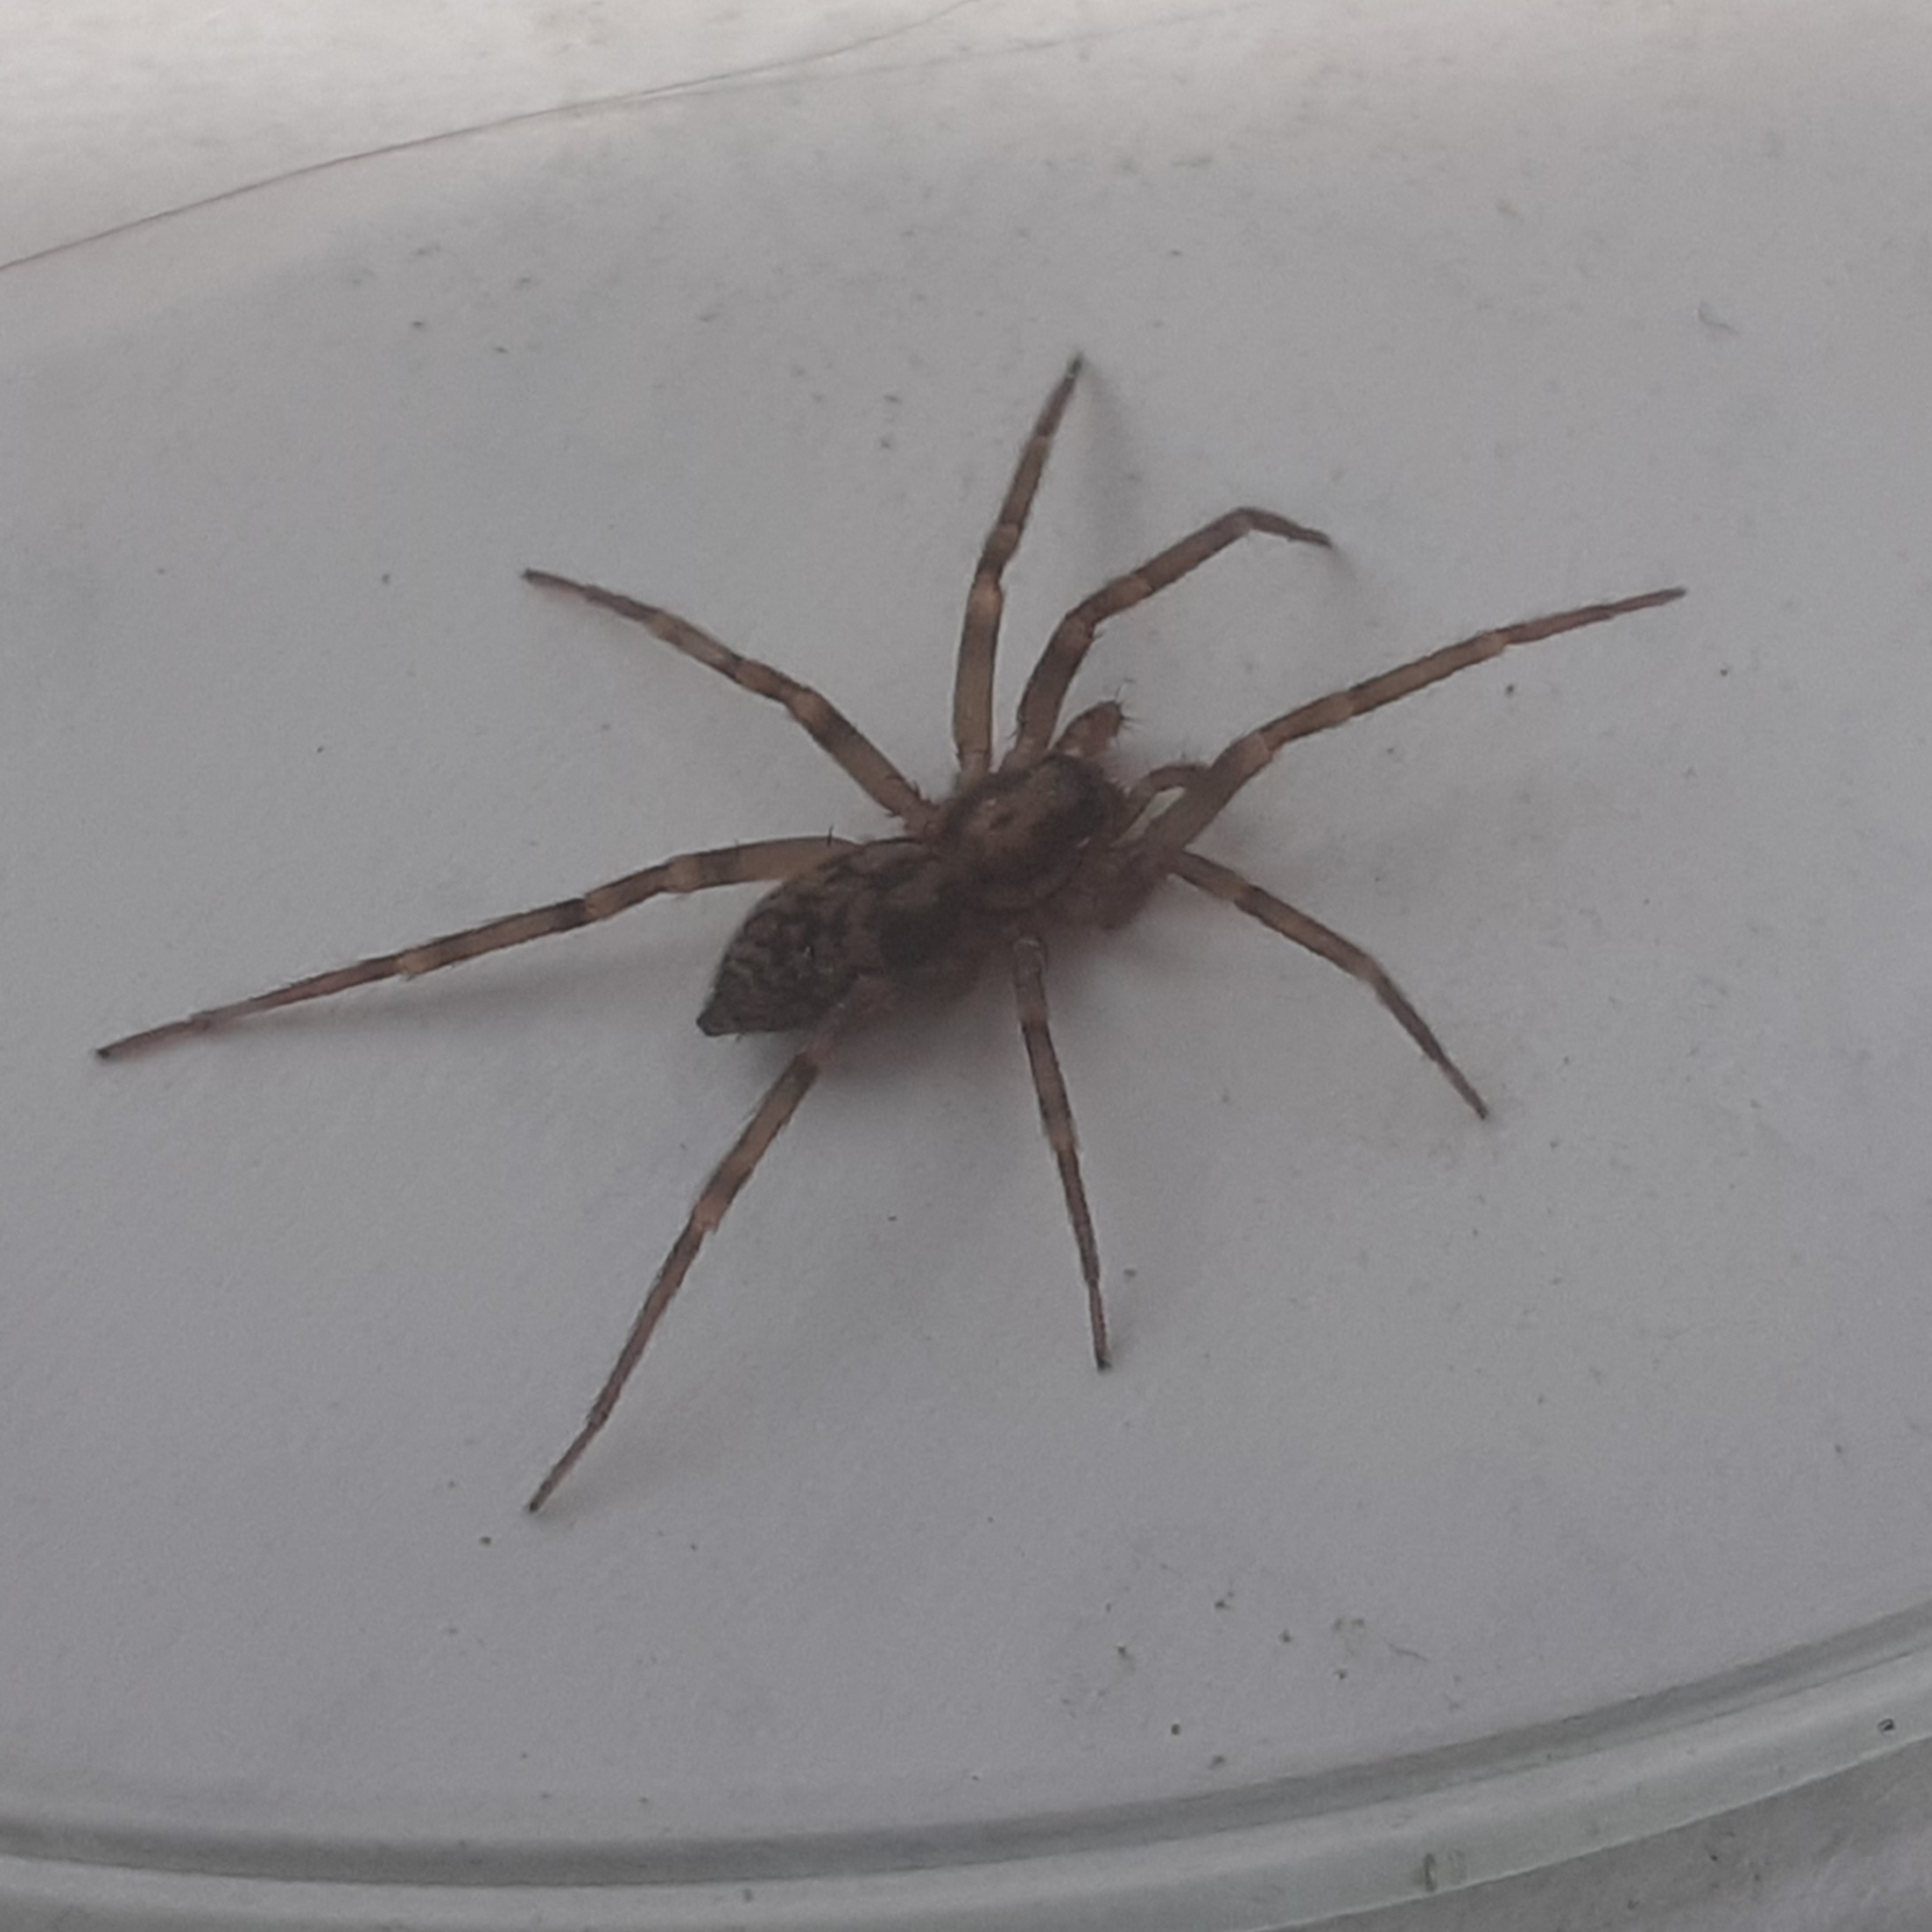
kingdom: Animalia
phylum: Arthropoda
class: Arachnida
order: Araneae
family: Liocranidae
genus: Liocranum
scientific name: Liocranum rupicola
